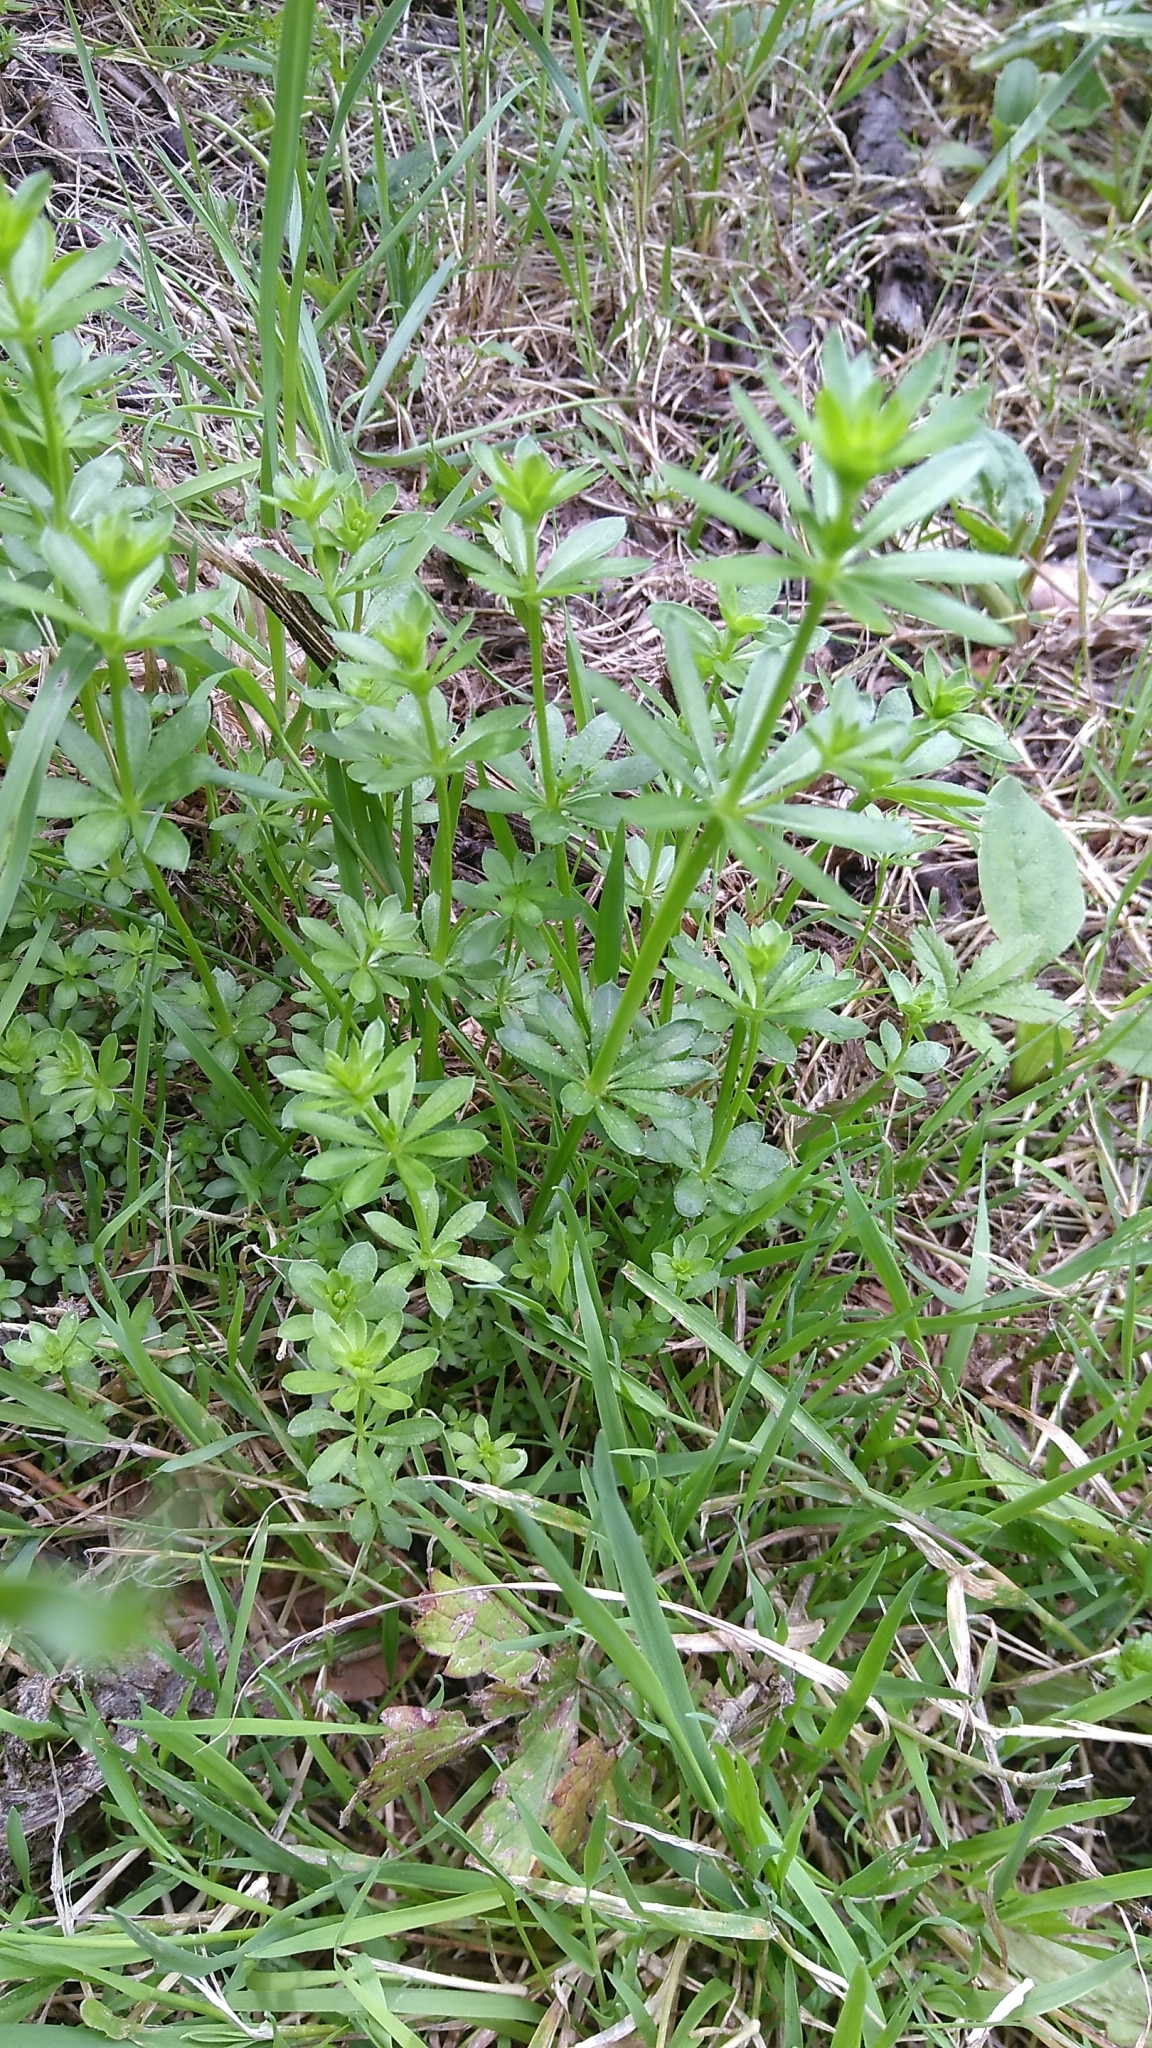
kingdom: Plantae
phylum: Tracheophyta
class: Magnoliopsida
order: Gentianales
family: Rubiaceae
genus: Galium
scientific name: Galium mollugo
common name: Hedge bedstraw
